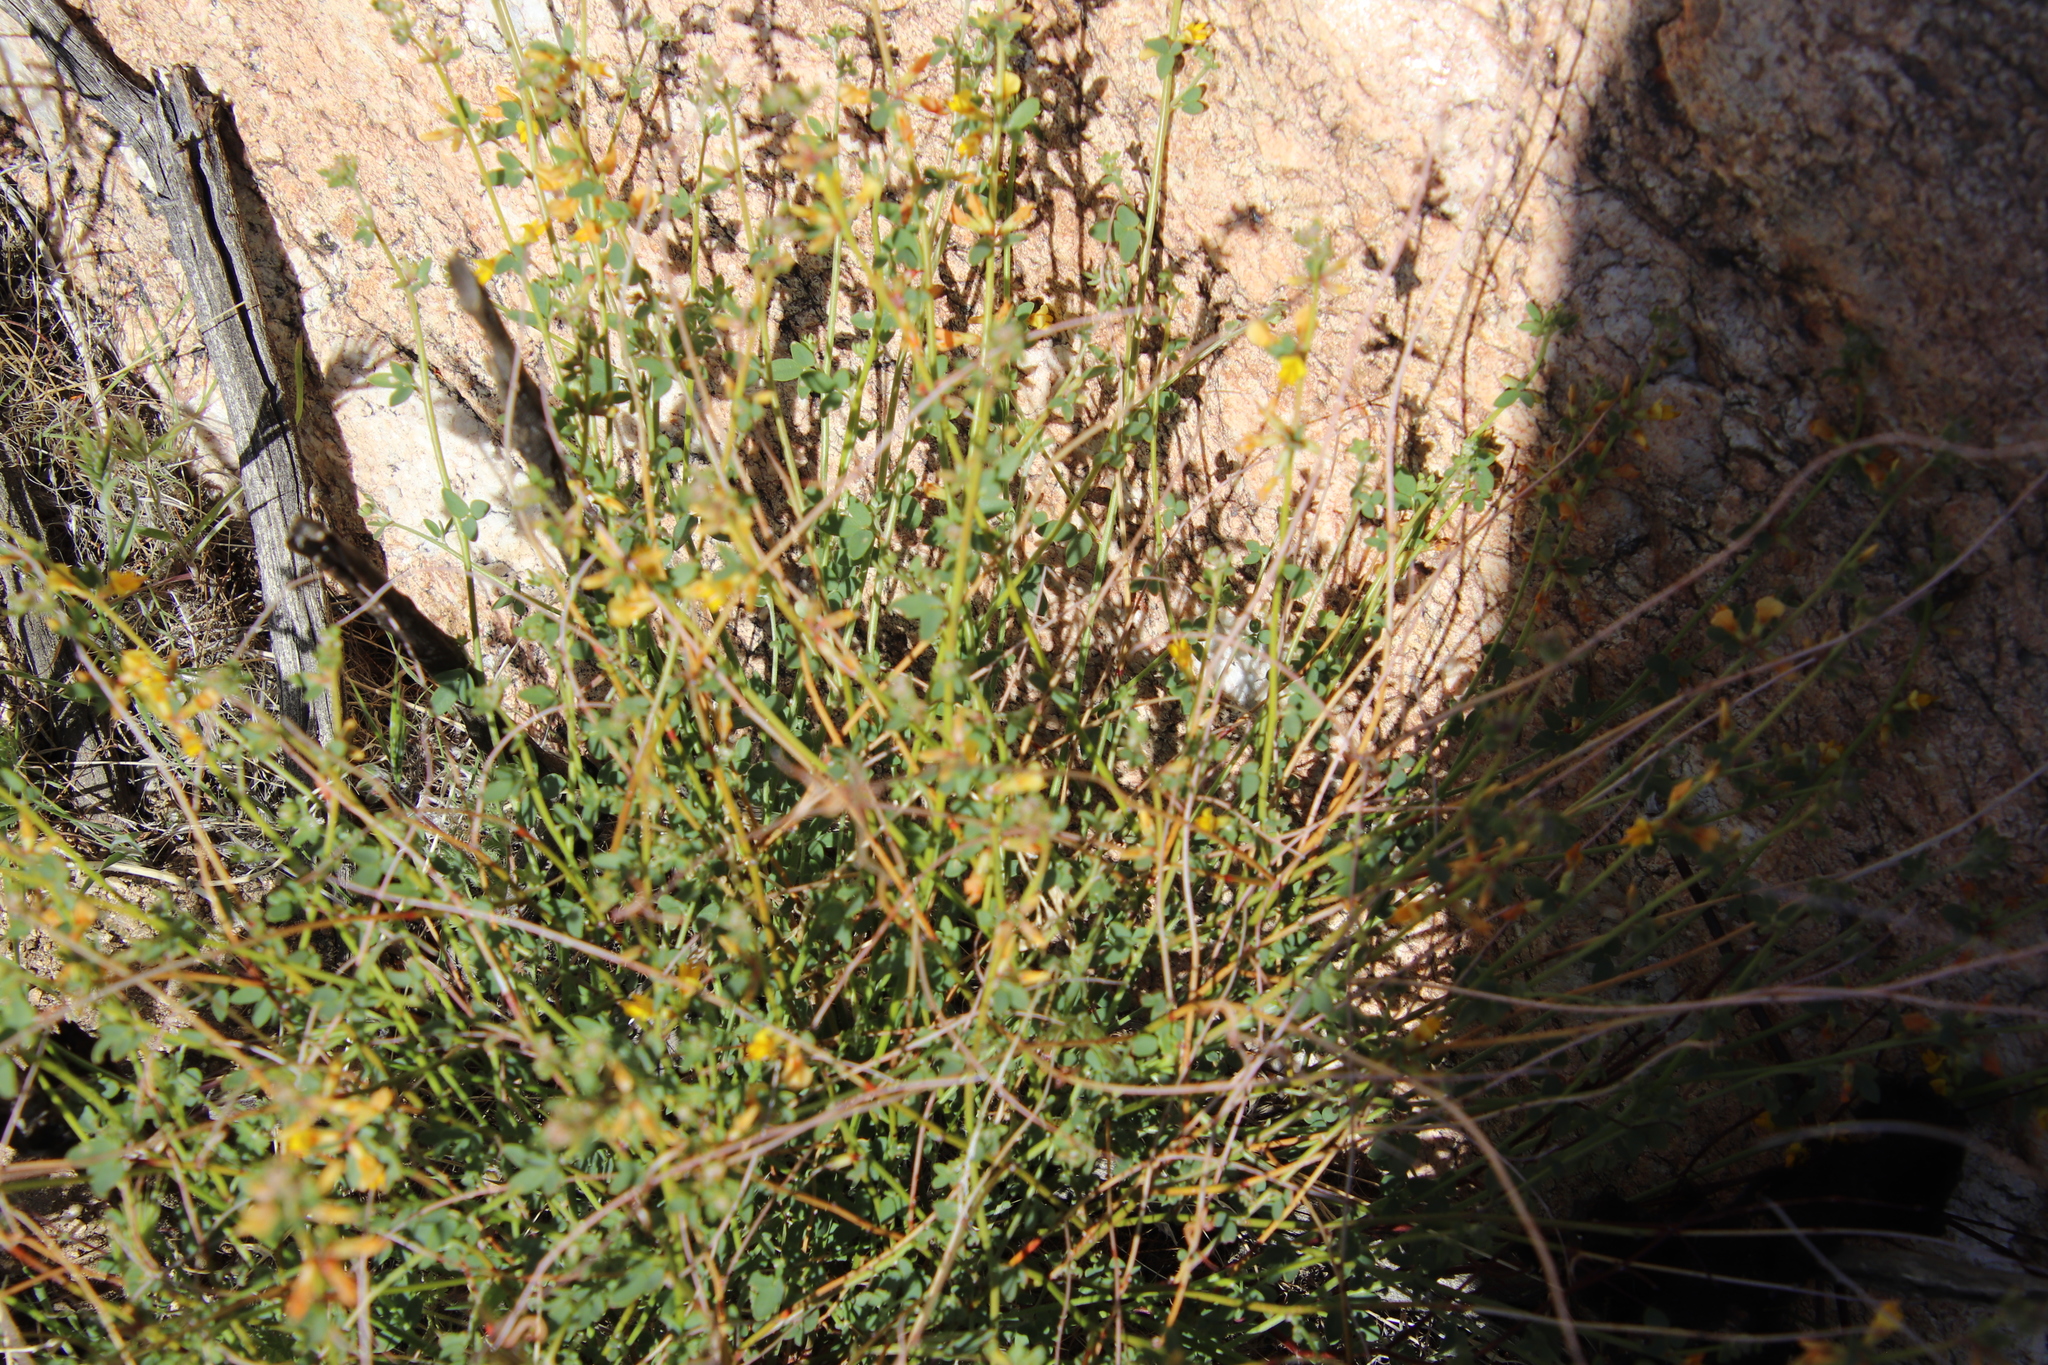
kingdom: Plantae
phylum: Tracheophyta
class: Magnoliopsida
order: Fabales
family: Fabaceae
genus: Acmispon
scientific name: Acmispon glaber
